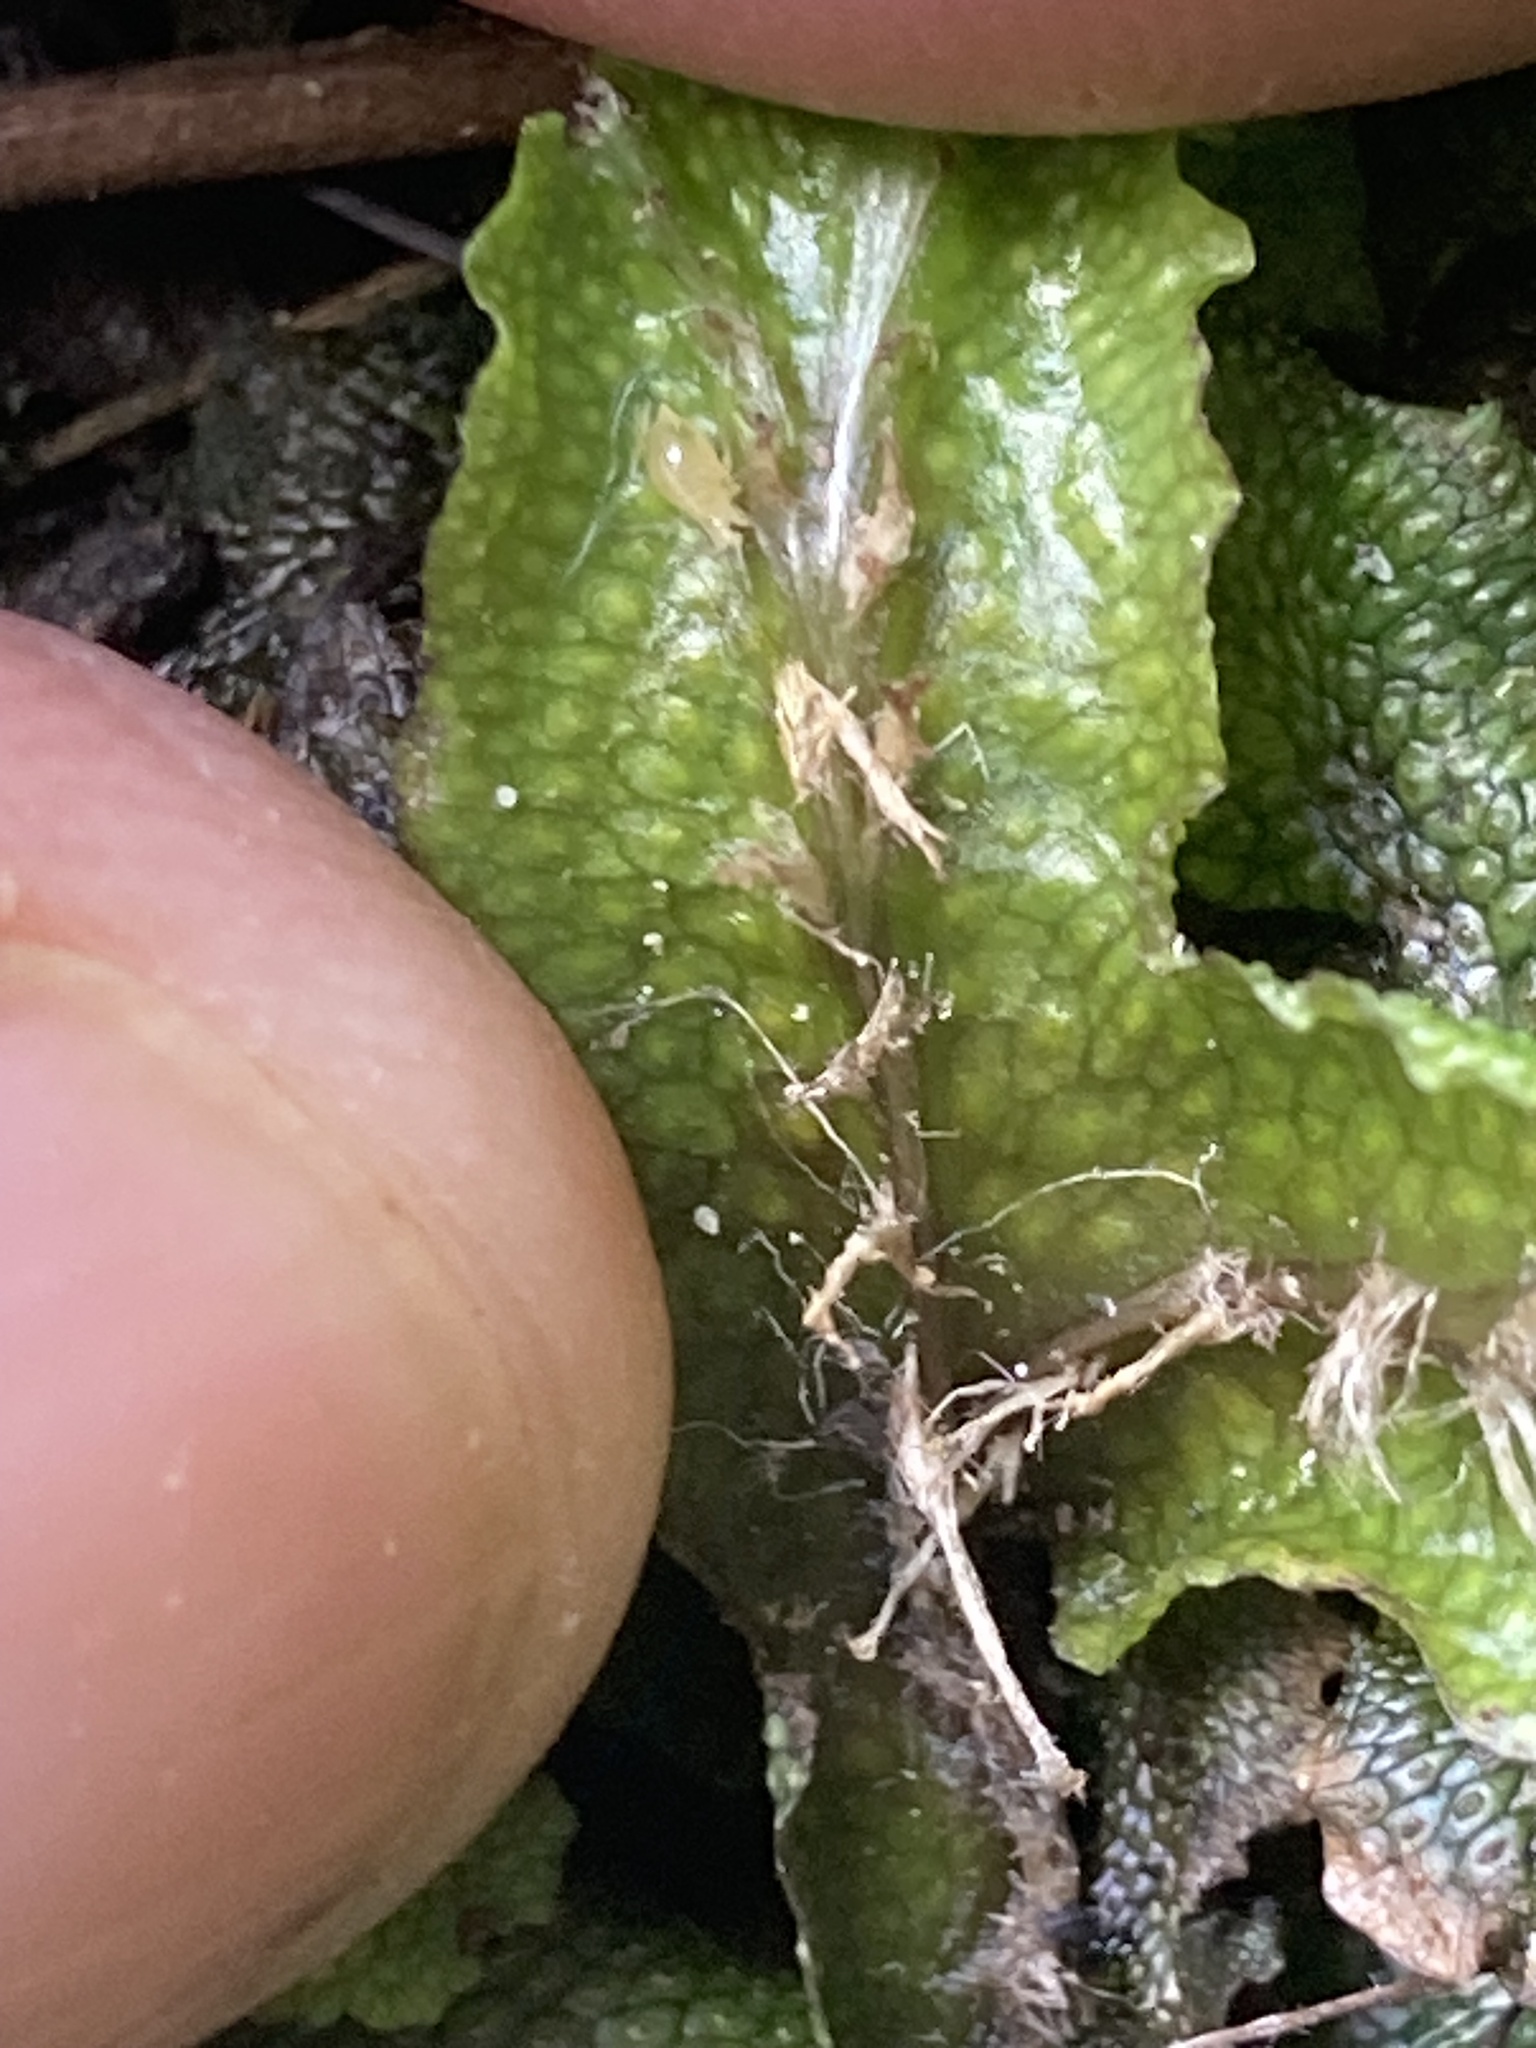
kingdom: Plantae
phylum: Marchantiophyta
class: Marchantiopsida
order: Marchantiales
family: Conocephalaceae
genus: Conocephalum
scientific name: Conocephalum salebrosum
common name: Cat-tongue liverwort
